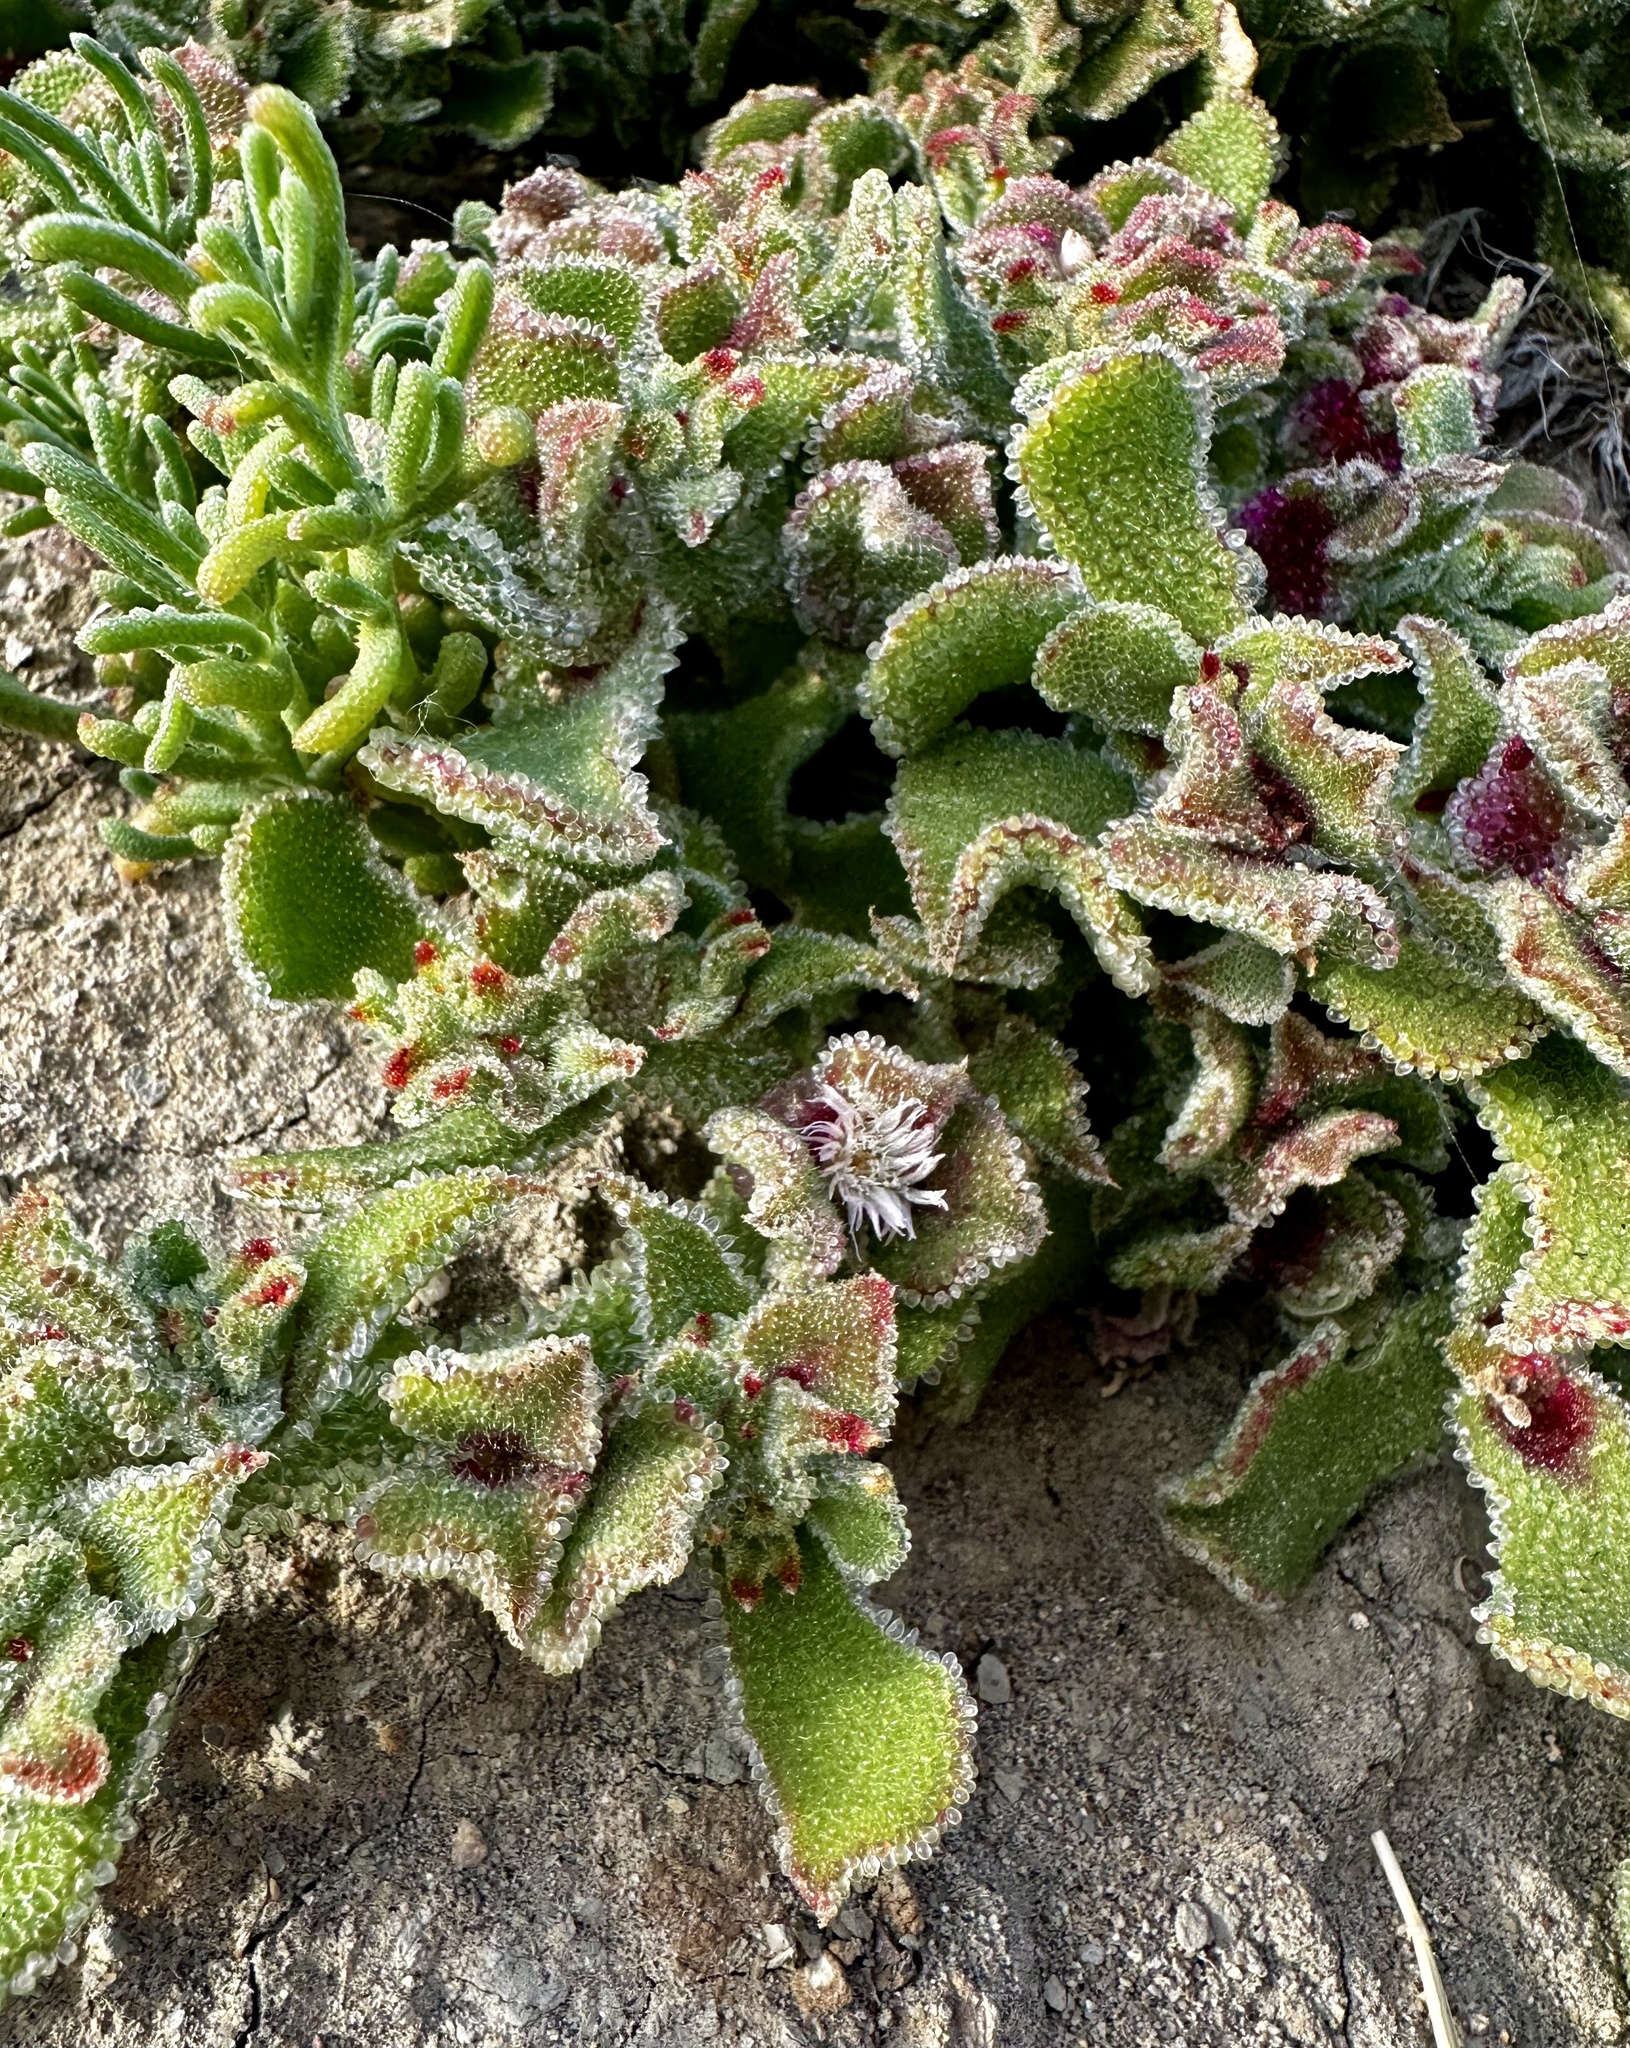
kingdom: Plantae
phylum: Tracheophyta
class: Magnoliopsida
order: Caryophyllales
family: Aizoaceae
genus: Mesembryanthemum
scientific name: Mesembryanthemum crystallinum
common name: Common iceplant
